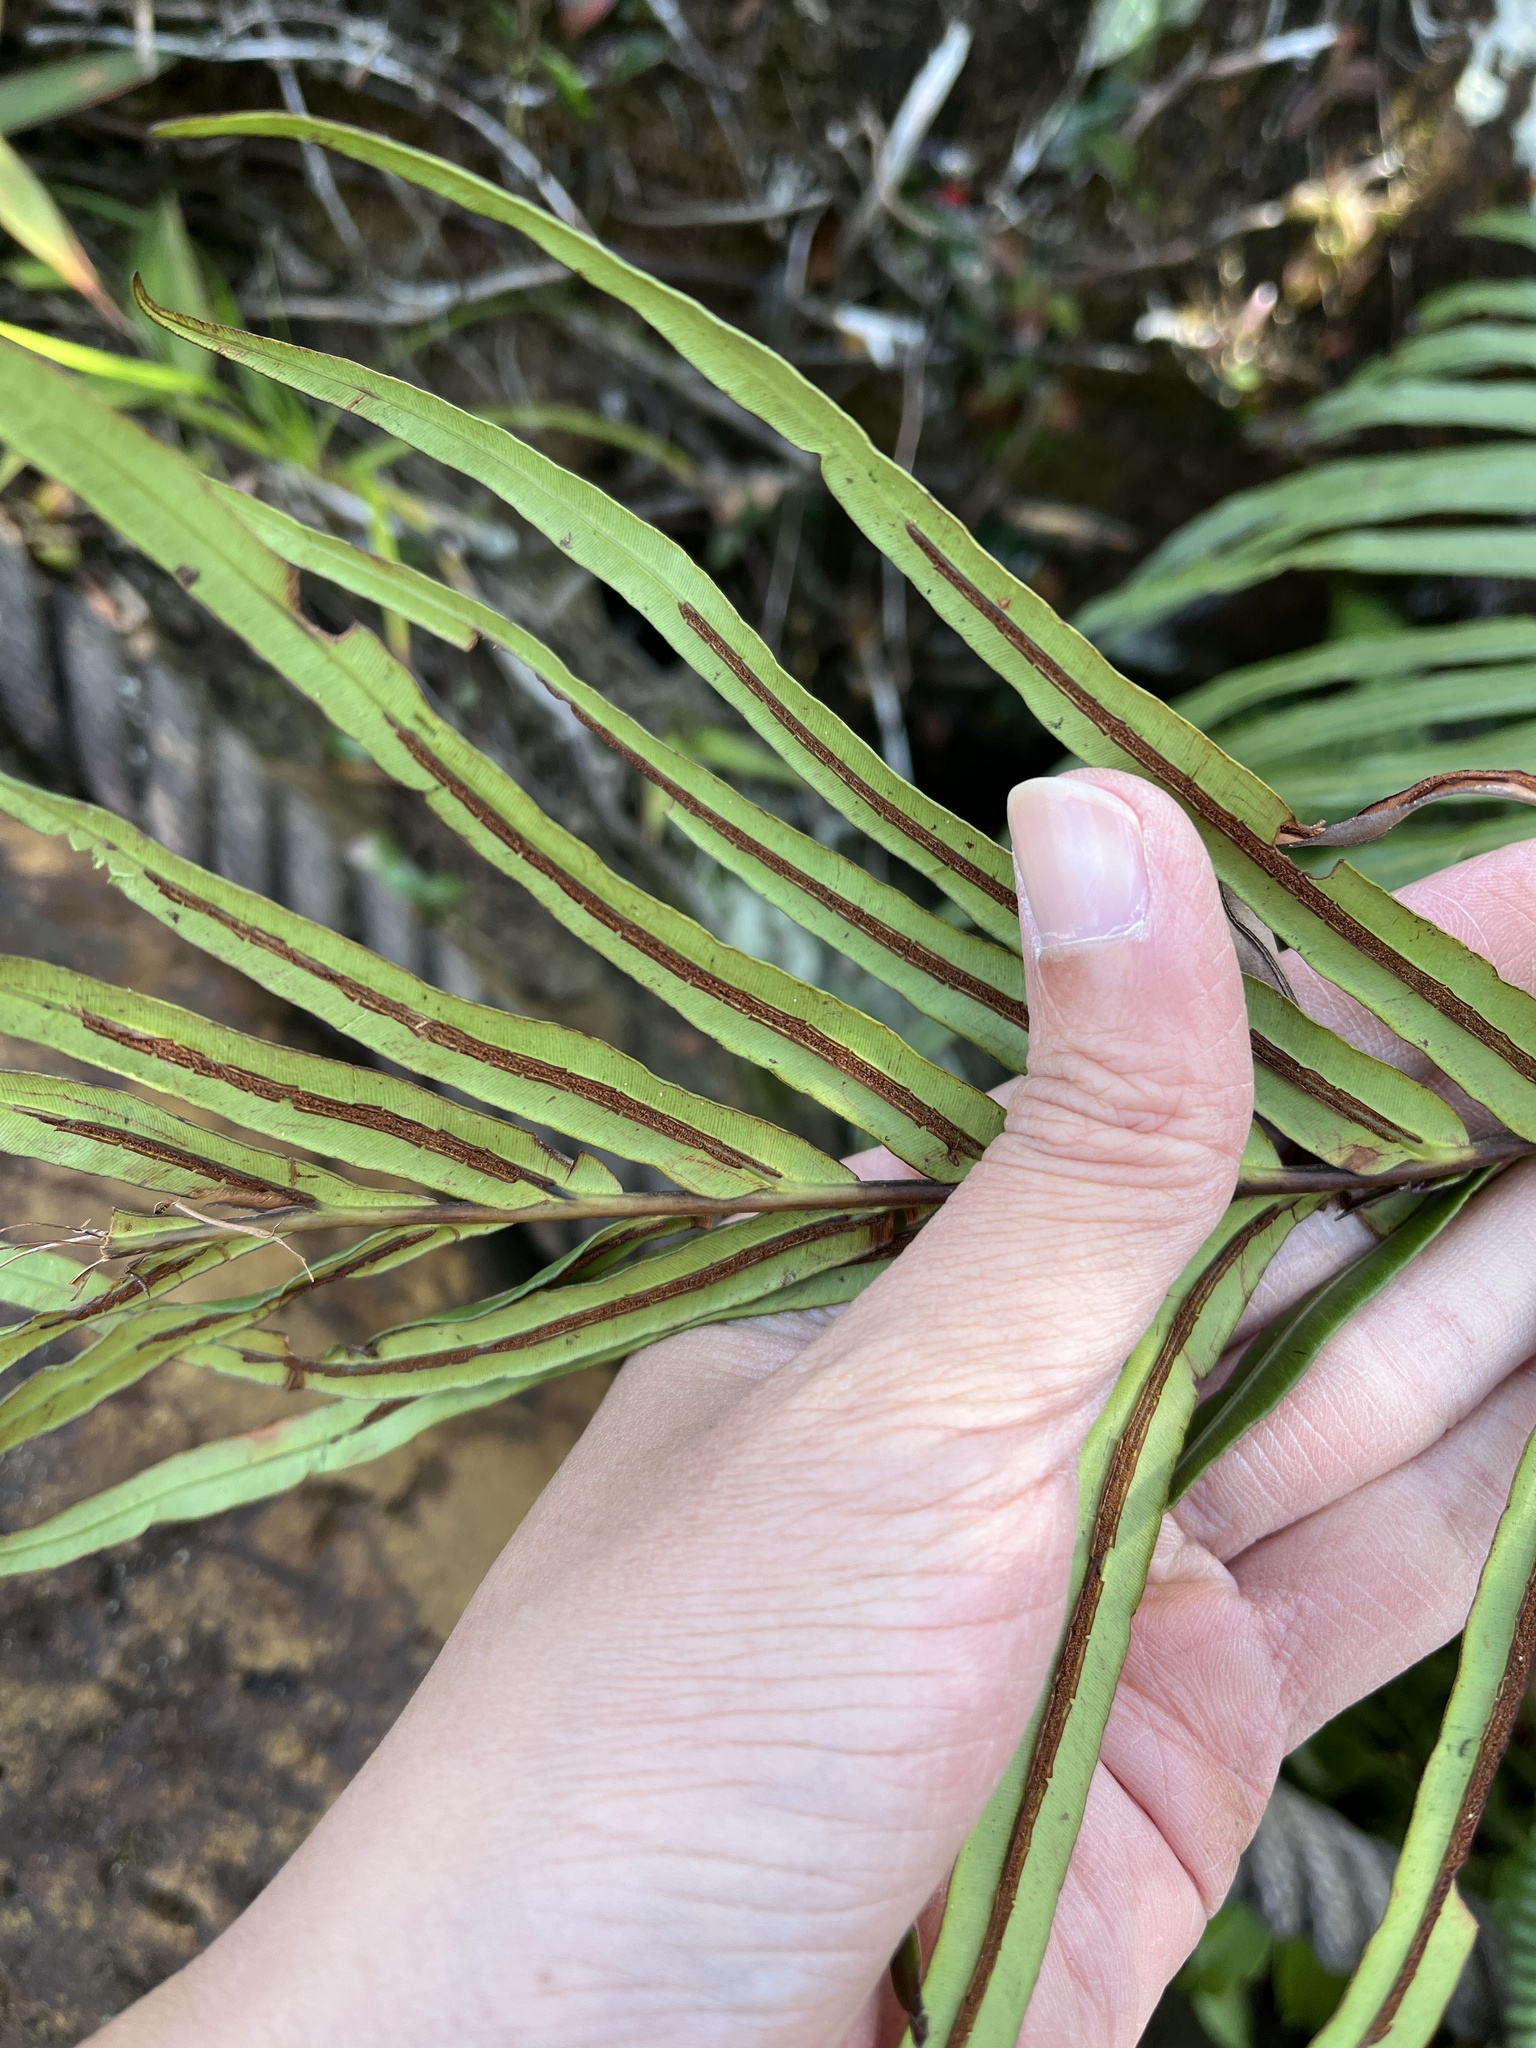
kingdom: Plantae
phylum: Tracheophyta
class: Polypodiopsida
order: Polypodiales
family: Blechnaceae
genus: Blechnopsis
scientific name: Blechnopsis orientalis
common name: Oriental blechnum
